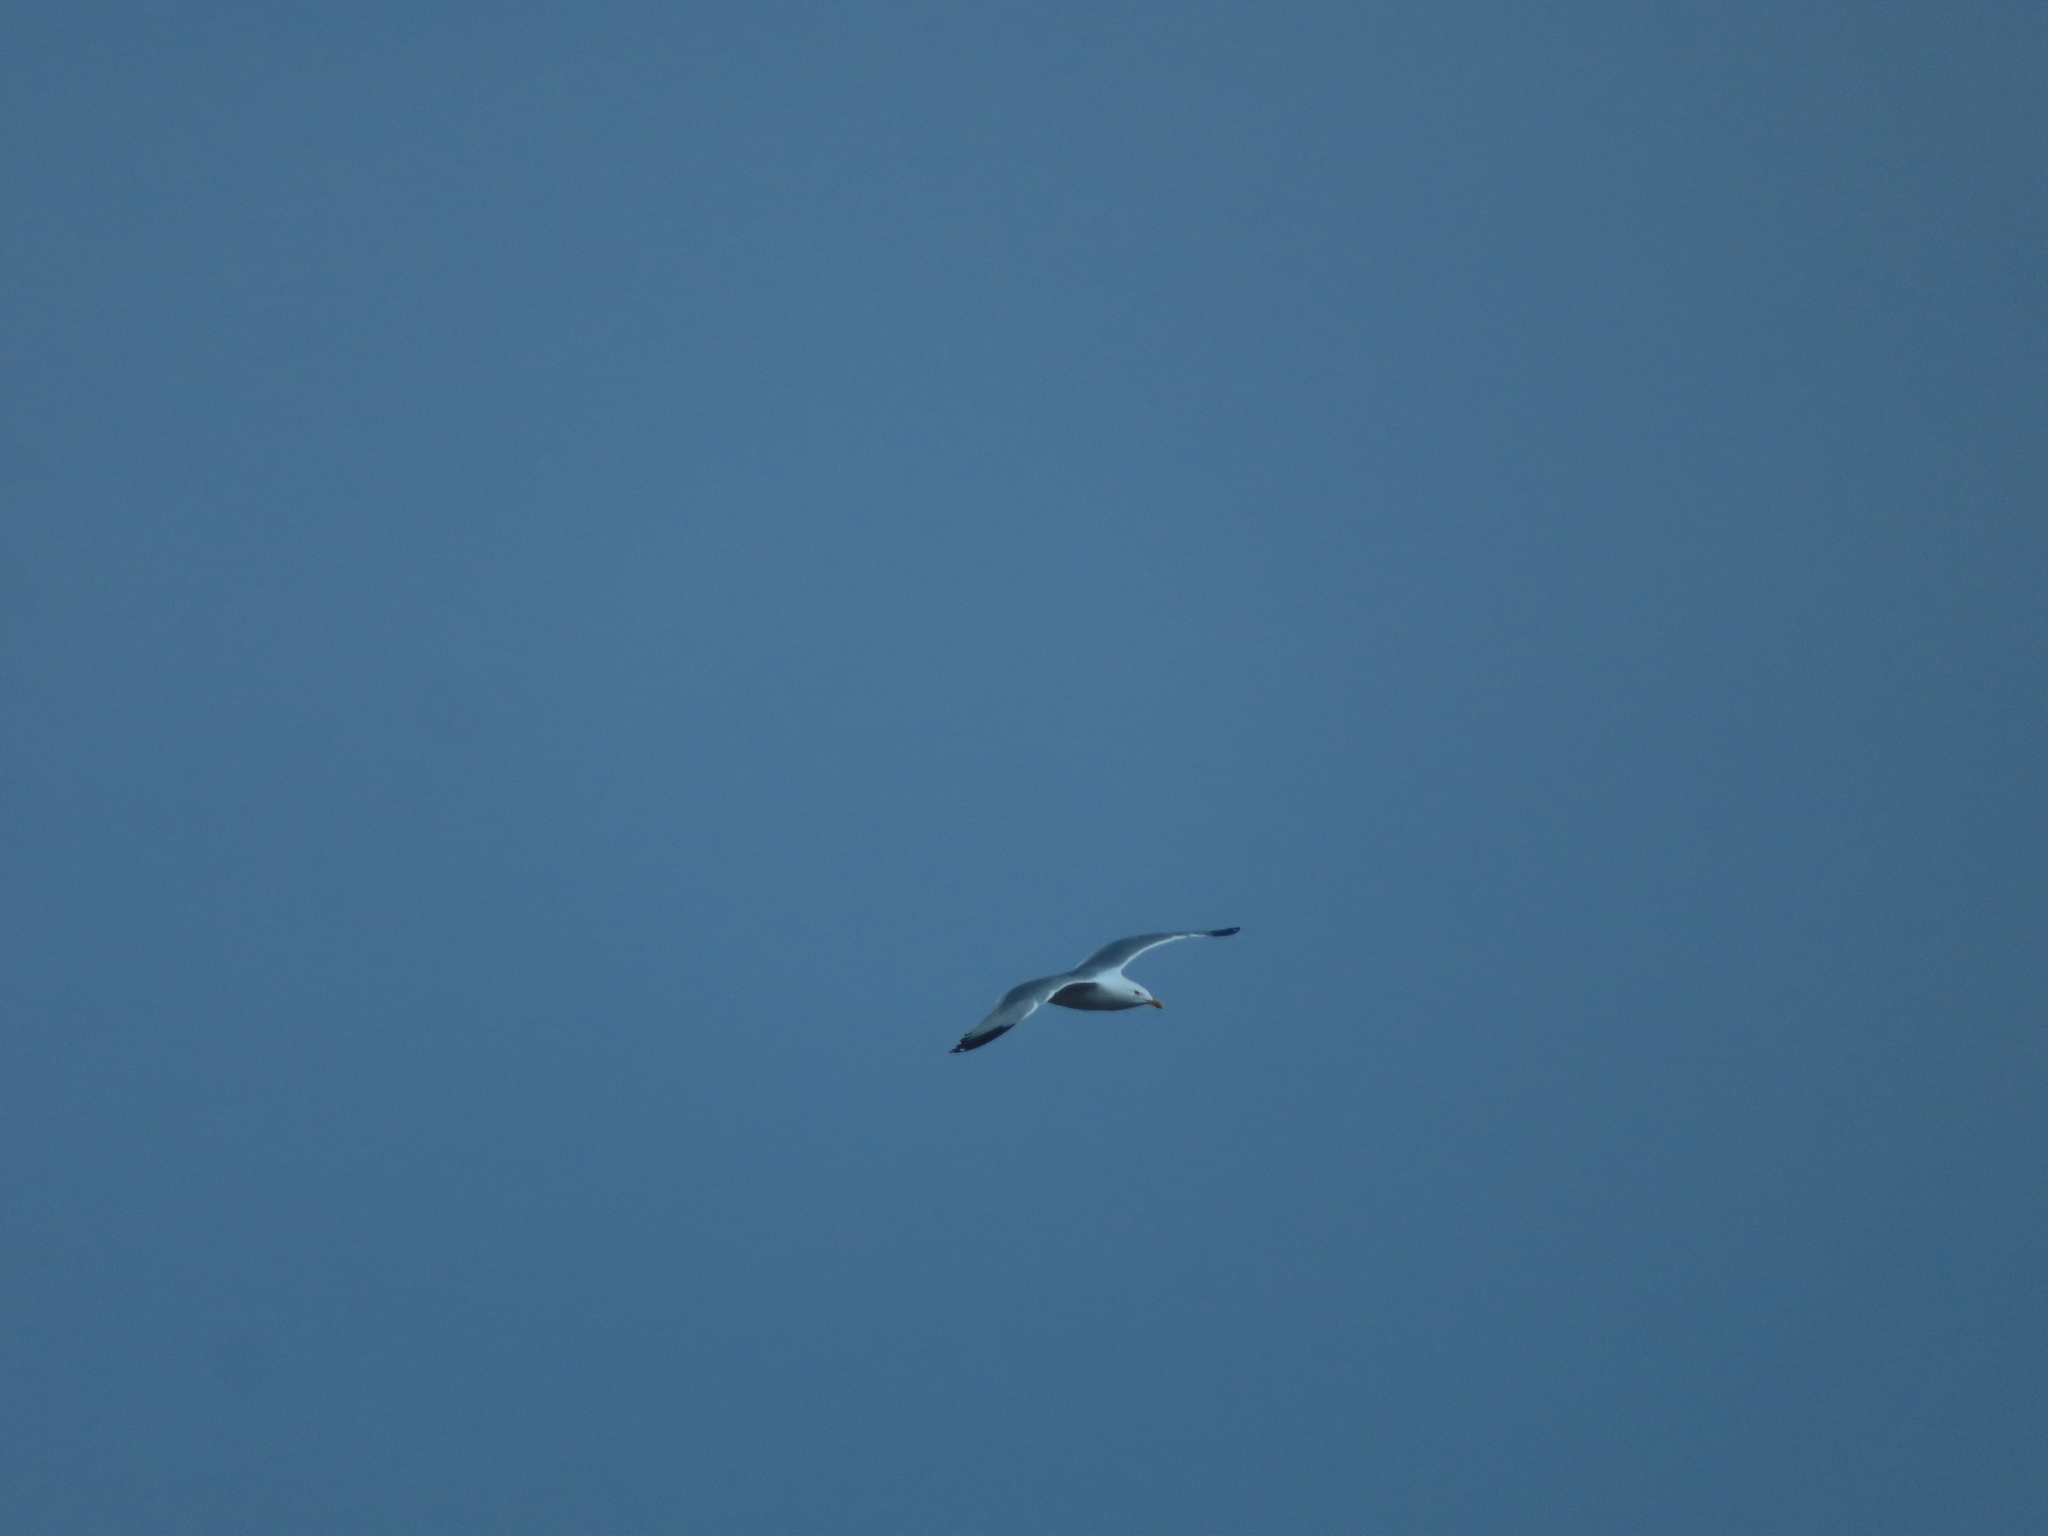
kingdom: Animalia
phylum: Chordata
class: Aves
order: Charadriiformes
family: Laridae
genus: Larus
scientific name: Larus smithsonianus
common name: American herring gull
